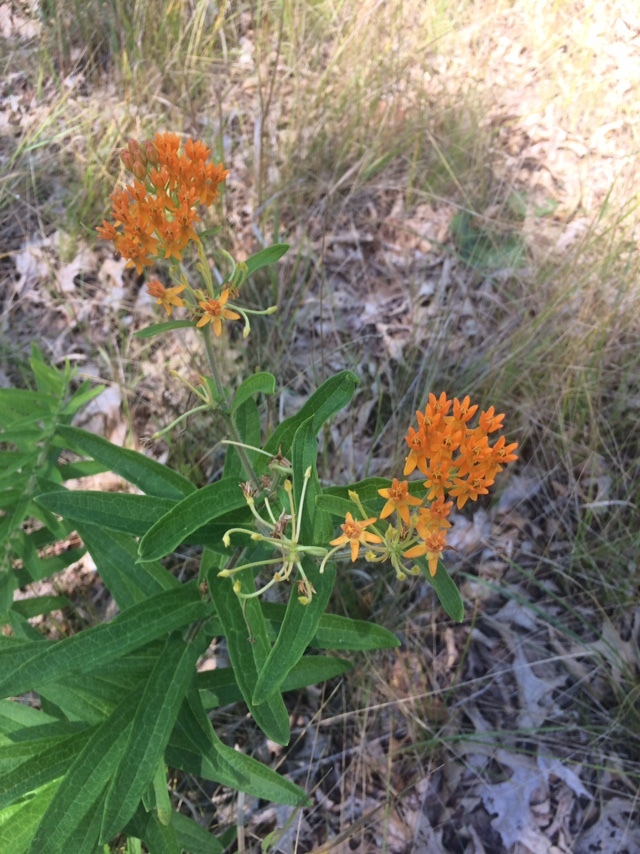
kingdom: Plantae
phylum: Tracheophyta
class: Magnoliopsida
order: Gentianales
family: Apocynaceae
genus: Asclepias
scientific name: Asclepias tuberosa
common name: Butterfly milkweed
